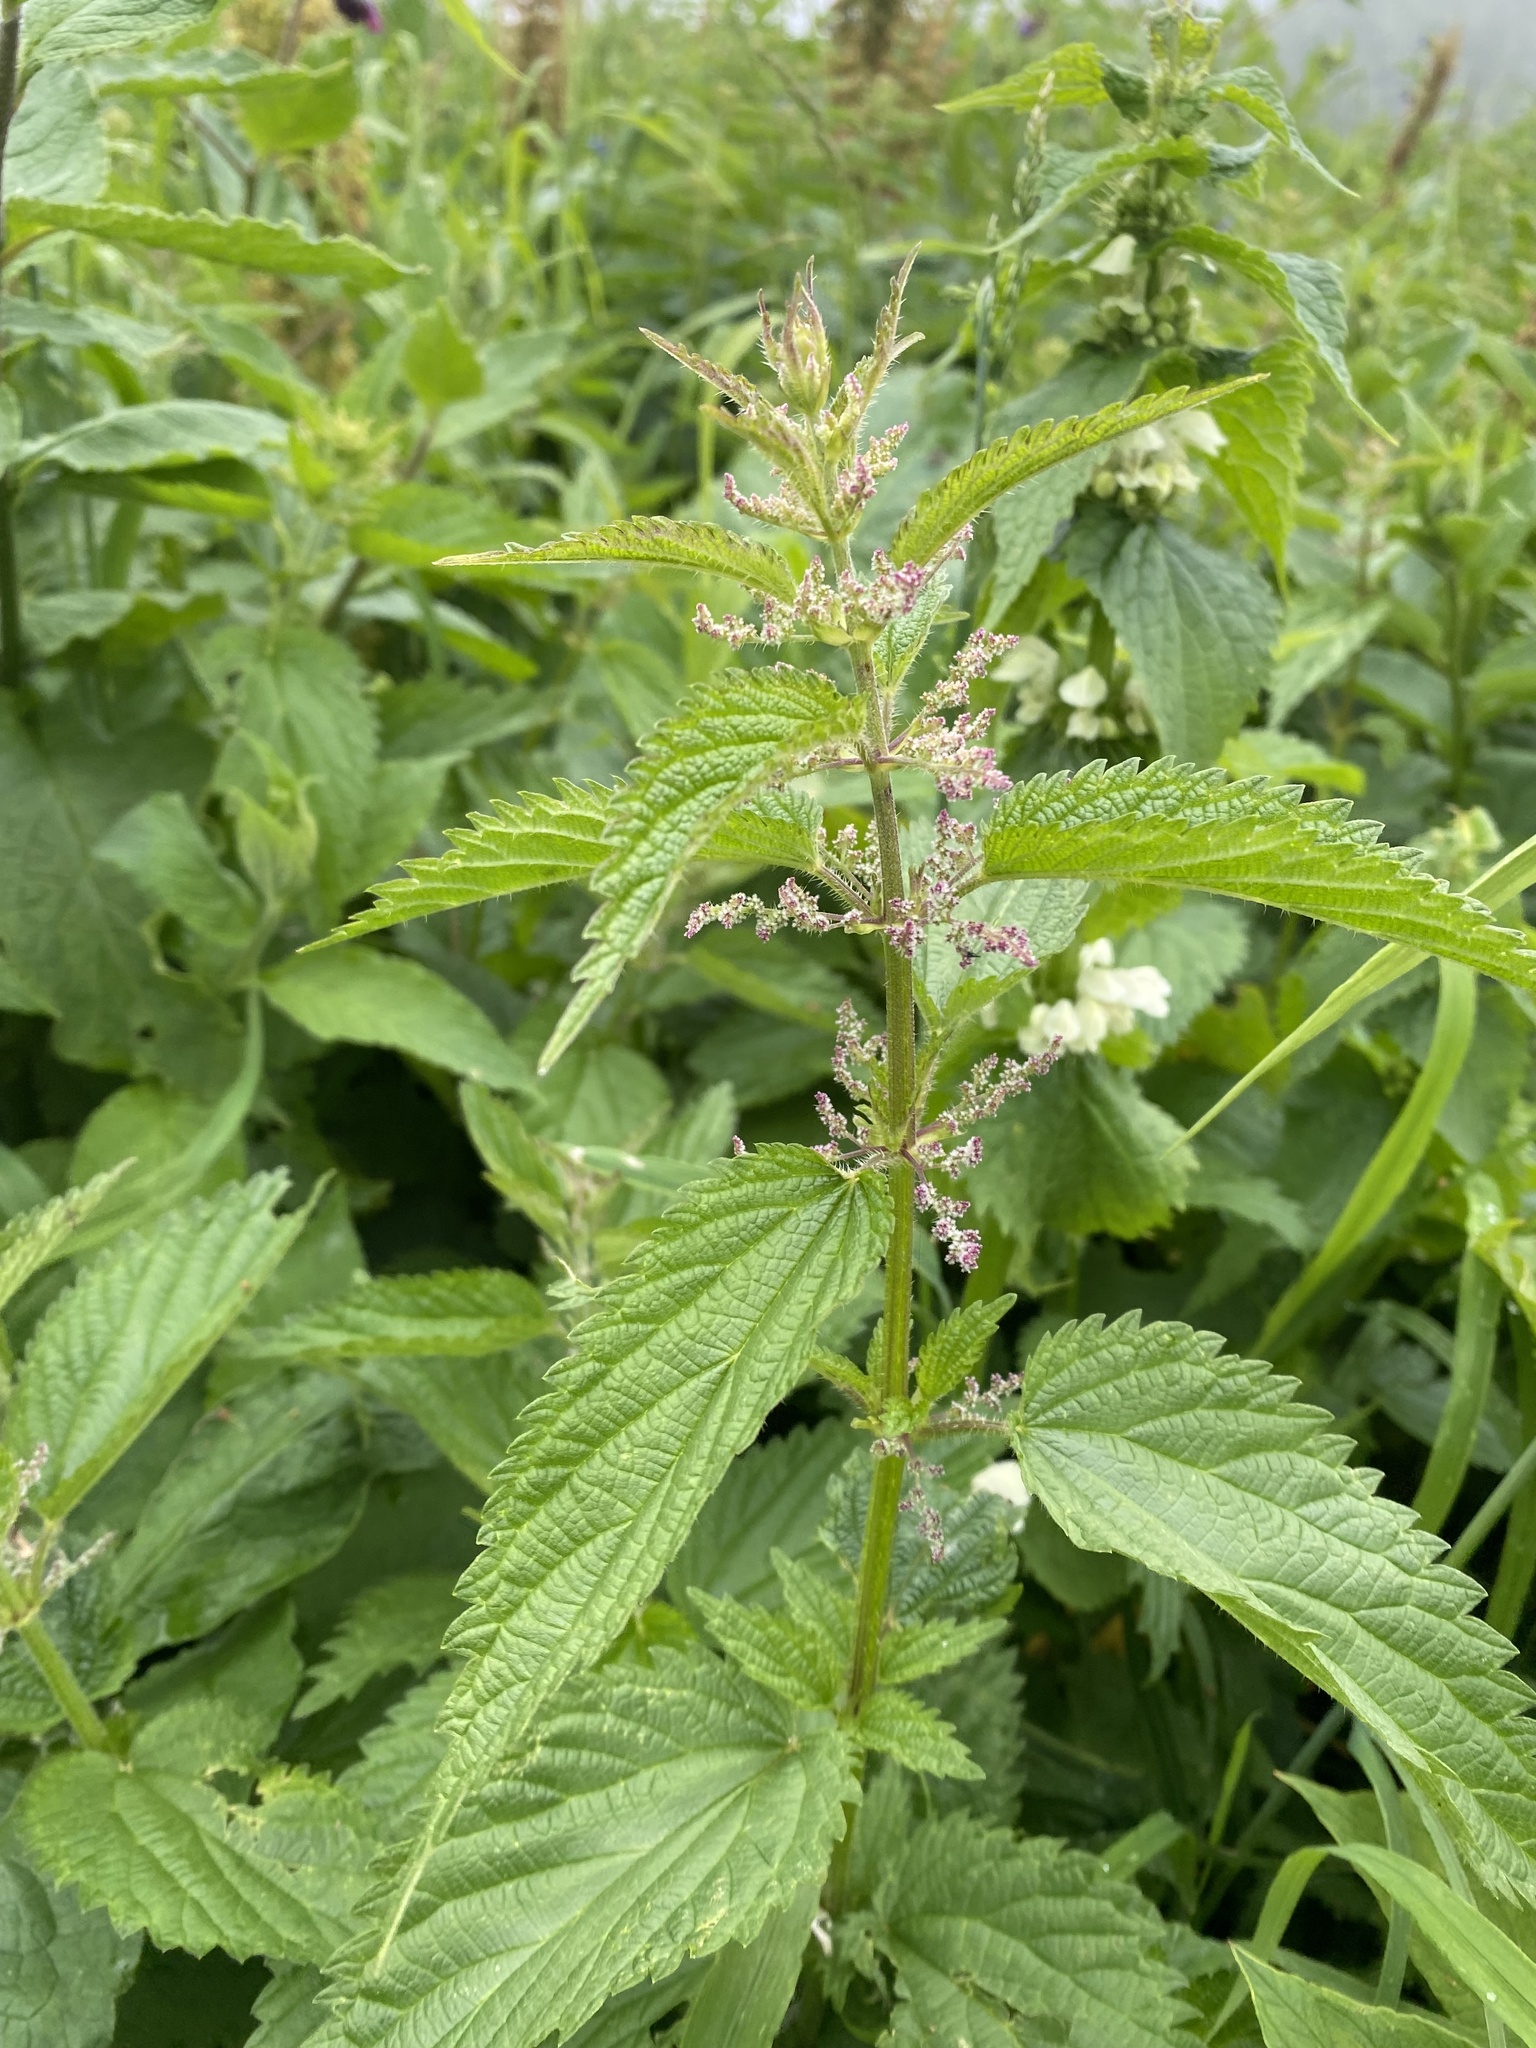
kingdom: Plantae
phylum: Tracheophyta
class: Magnoliopsida
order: Rosales
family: Urticaceae
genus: Urtica
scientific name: Urtica dioica
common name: Common nettle
